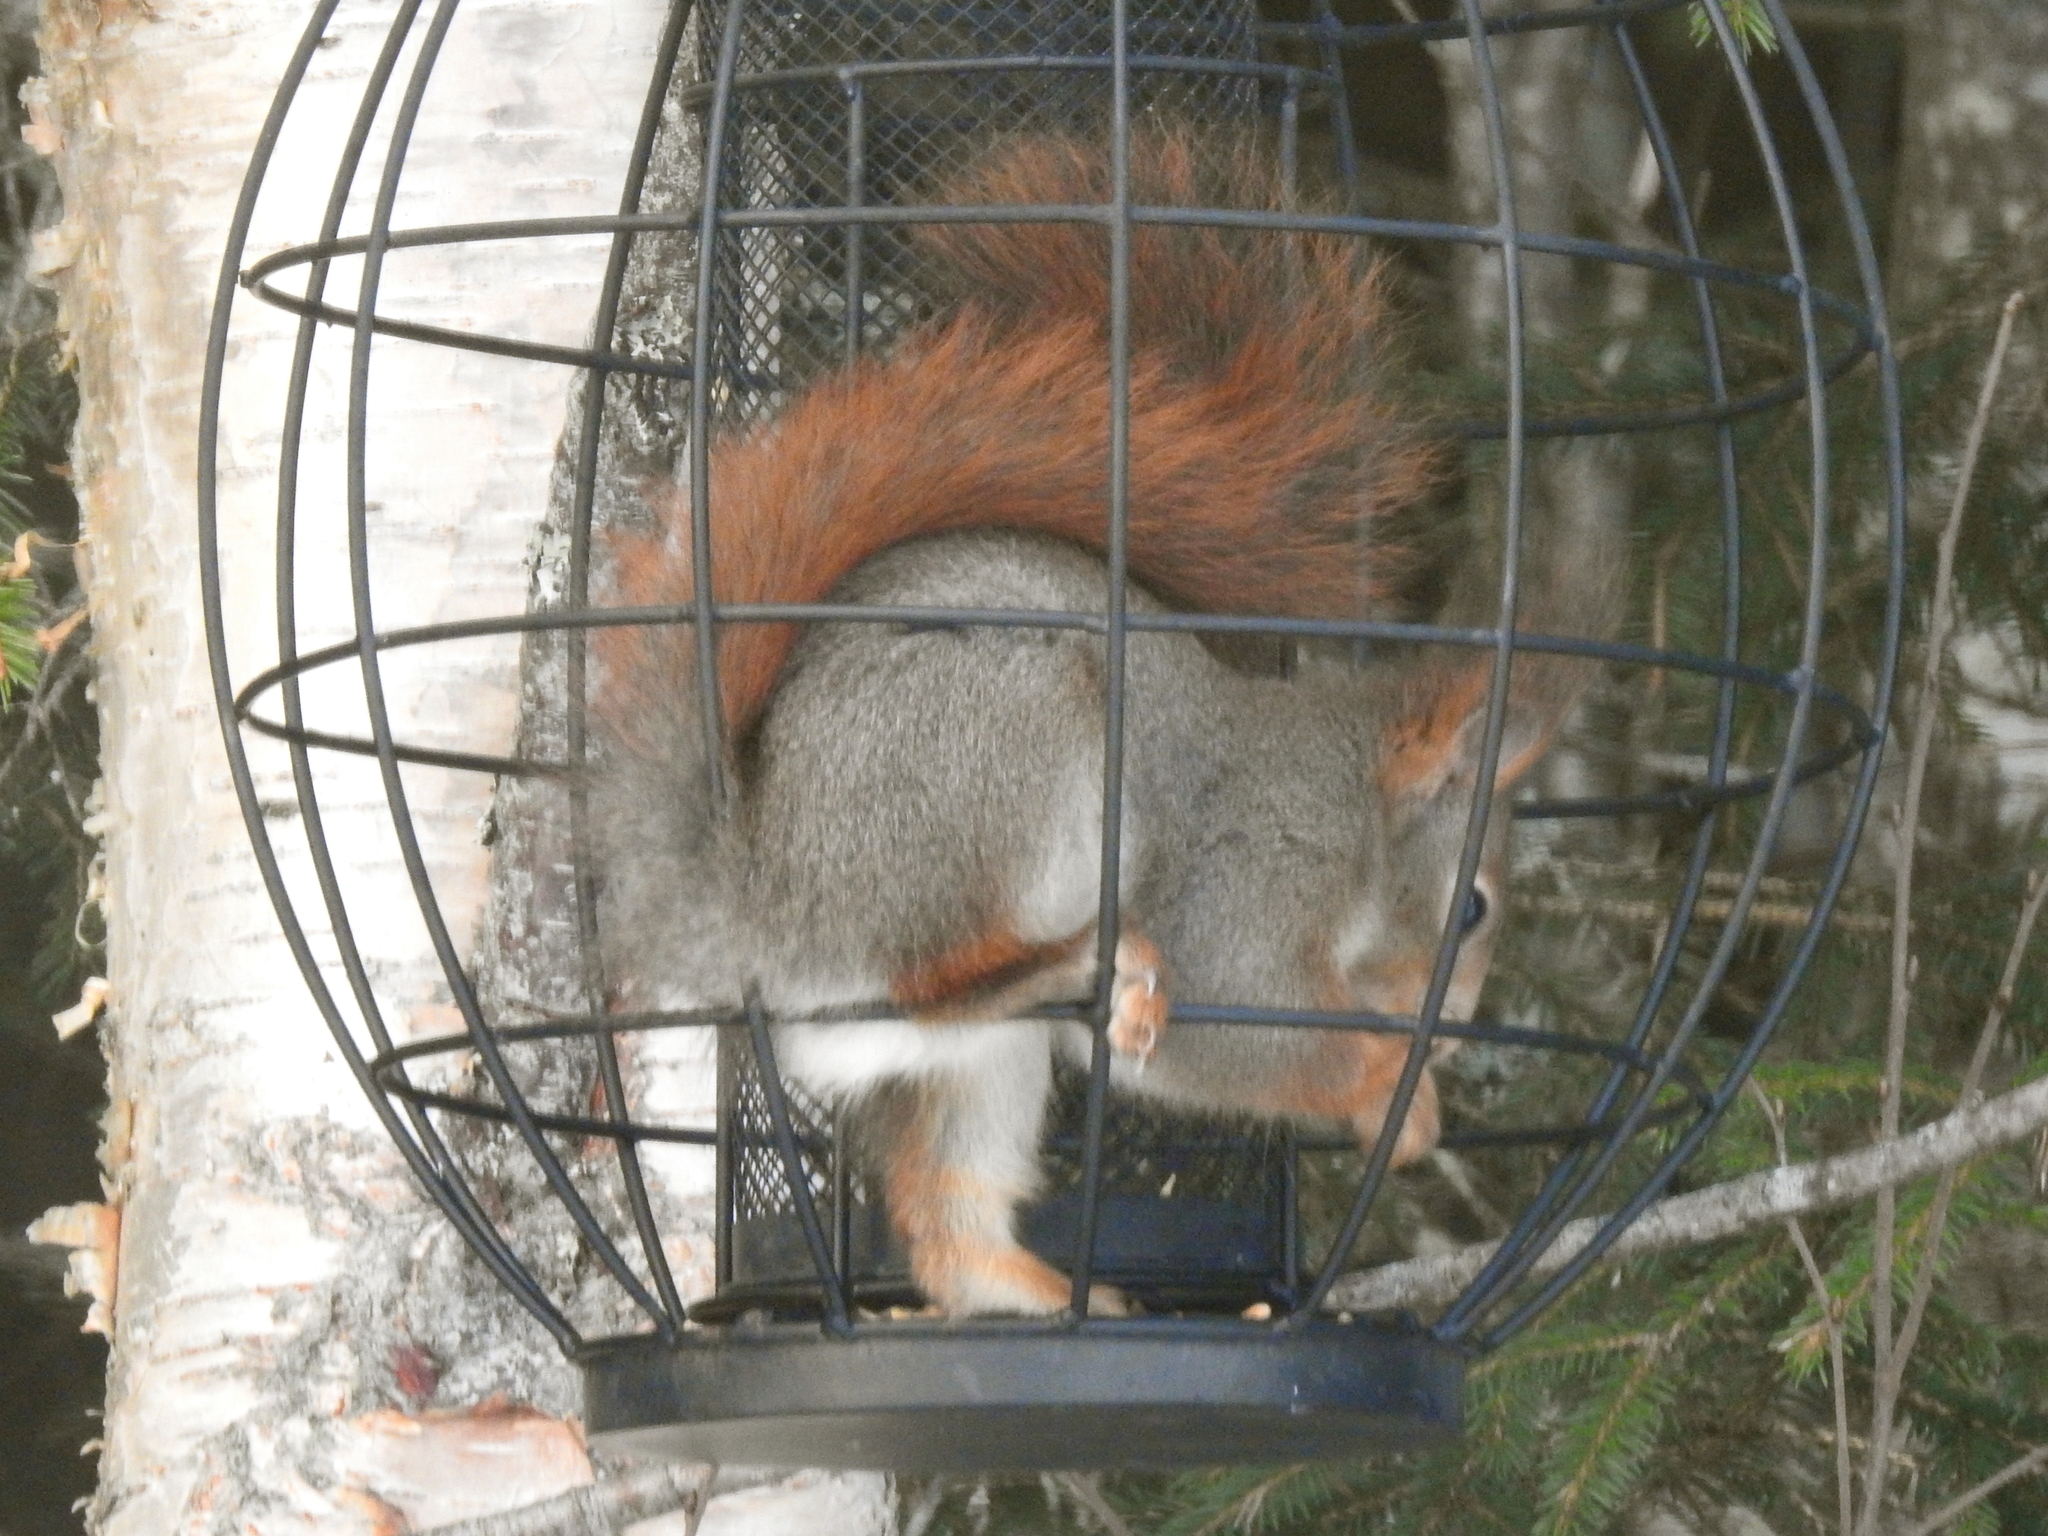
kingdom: Animalia
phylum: Chordata
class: Mammalia
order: Rodentia
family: Sciuridae
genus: Sciurus
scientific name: Sciurus vulgaris
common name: Eurasian red squirrel
